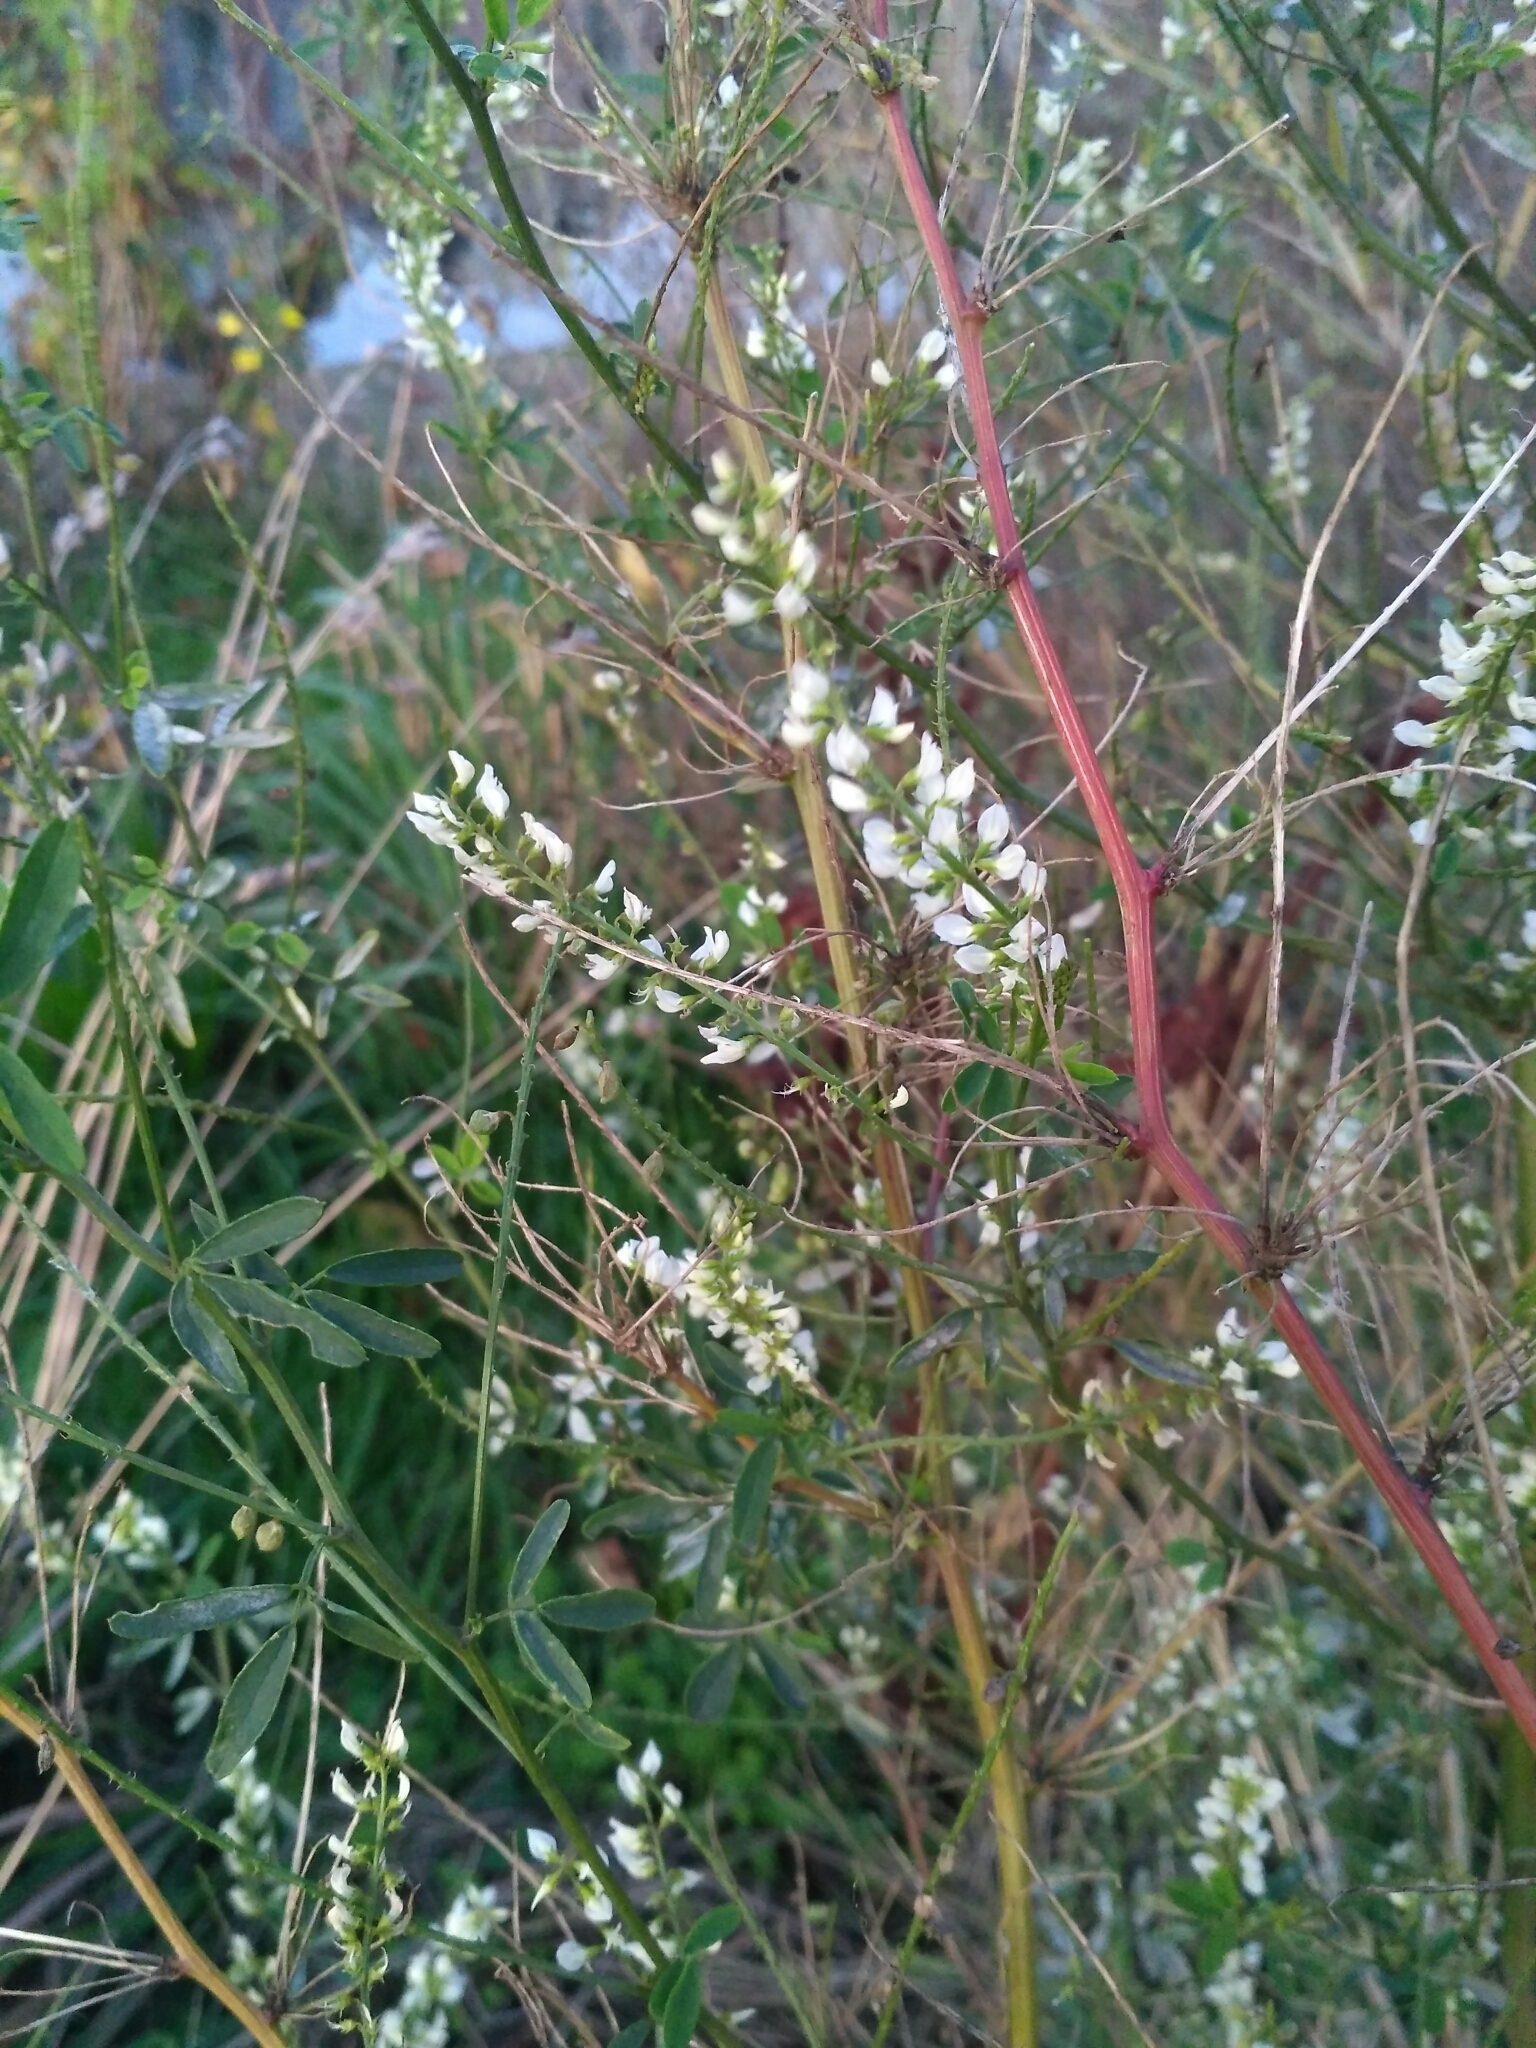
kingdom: Plantae
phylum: Tracheophyta
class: Magnoliopsida
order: Fabales
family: Fabaceae
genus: Melilotus
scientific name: Melilotus albus
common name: White melilot
